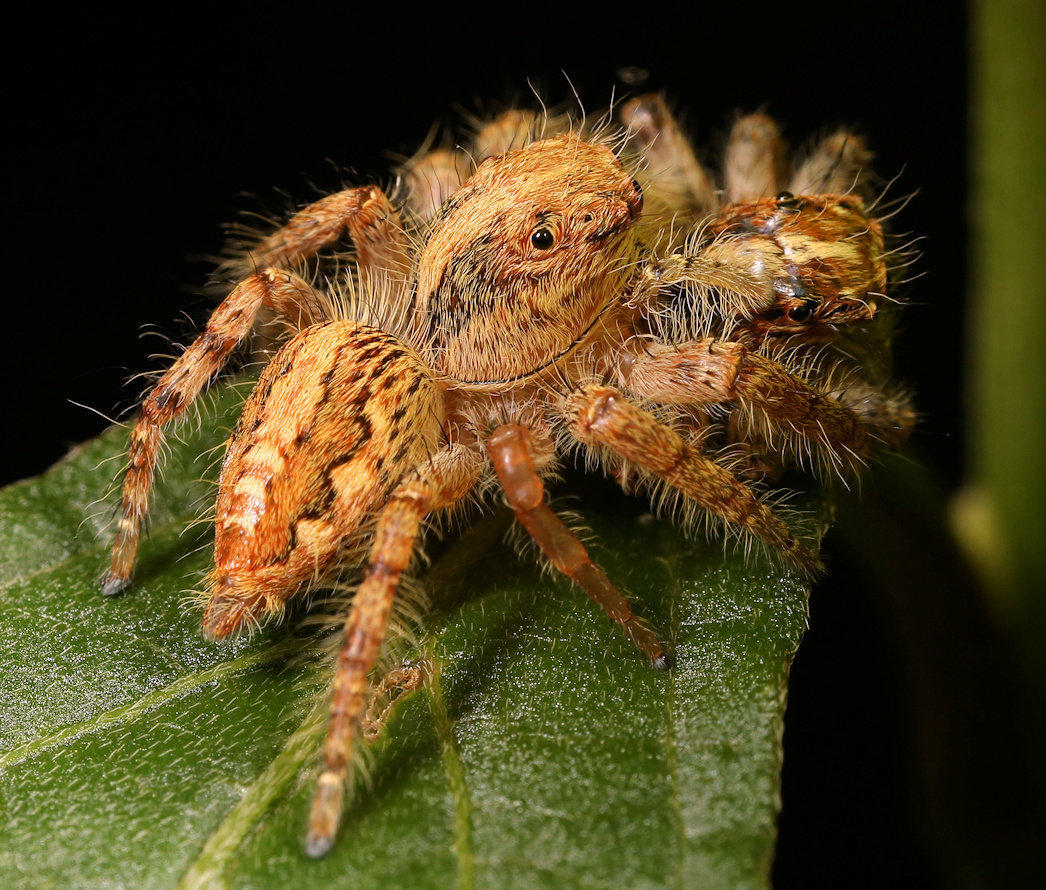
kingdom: Animalia
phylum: Arthropoda
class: Arachnida
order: Araneae
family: Salticidae
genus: Hyllus
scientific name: Hyllus treleaveni
